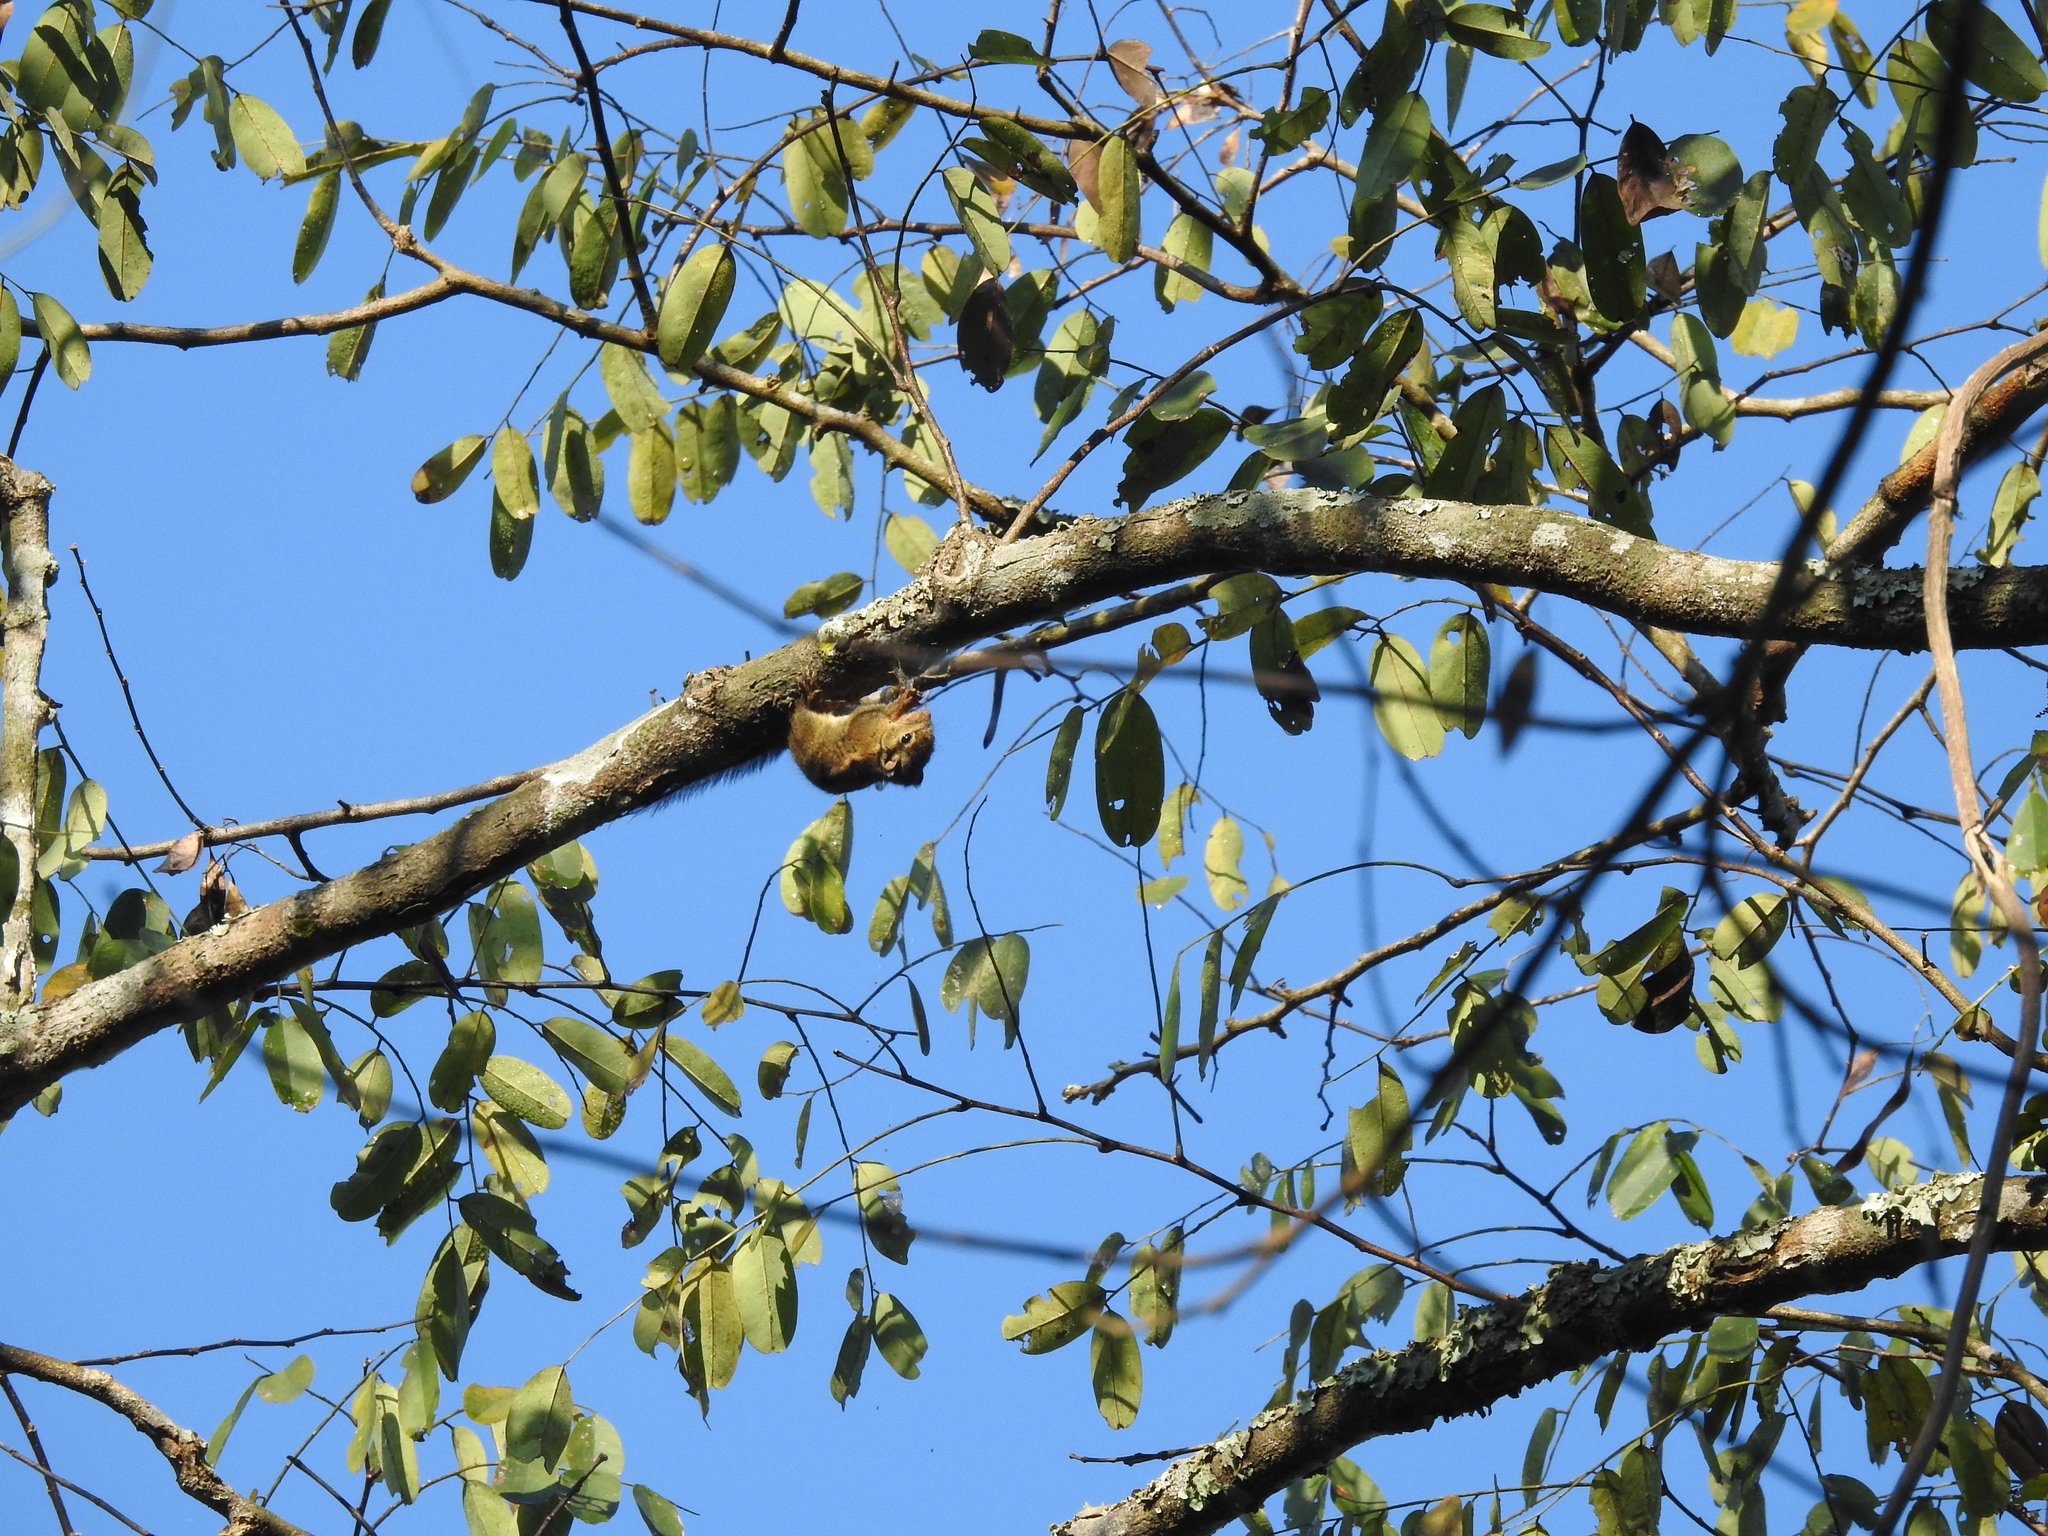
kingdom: Animalia
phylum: Chordata
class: Mammalia
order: Rodentia
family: Sciuridae
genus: Tamiops
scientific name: Tamiops mcclellandii
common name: Himalayan striped squirrel
